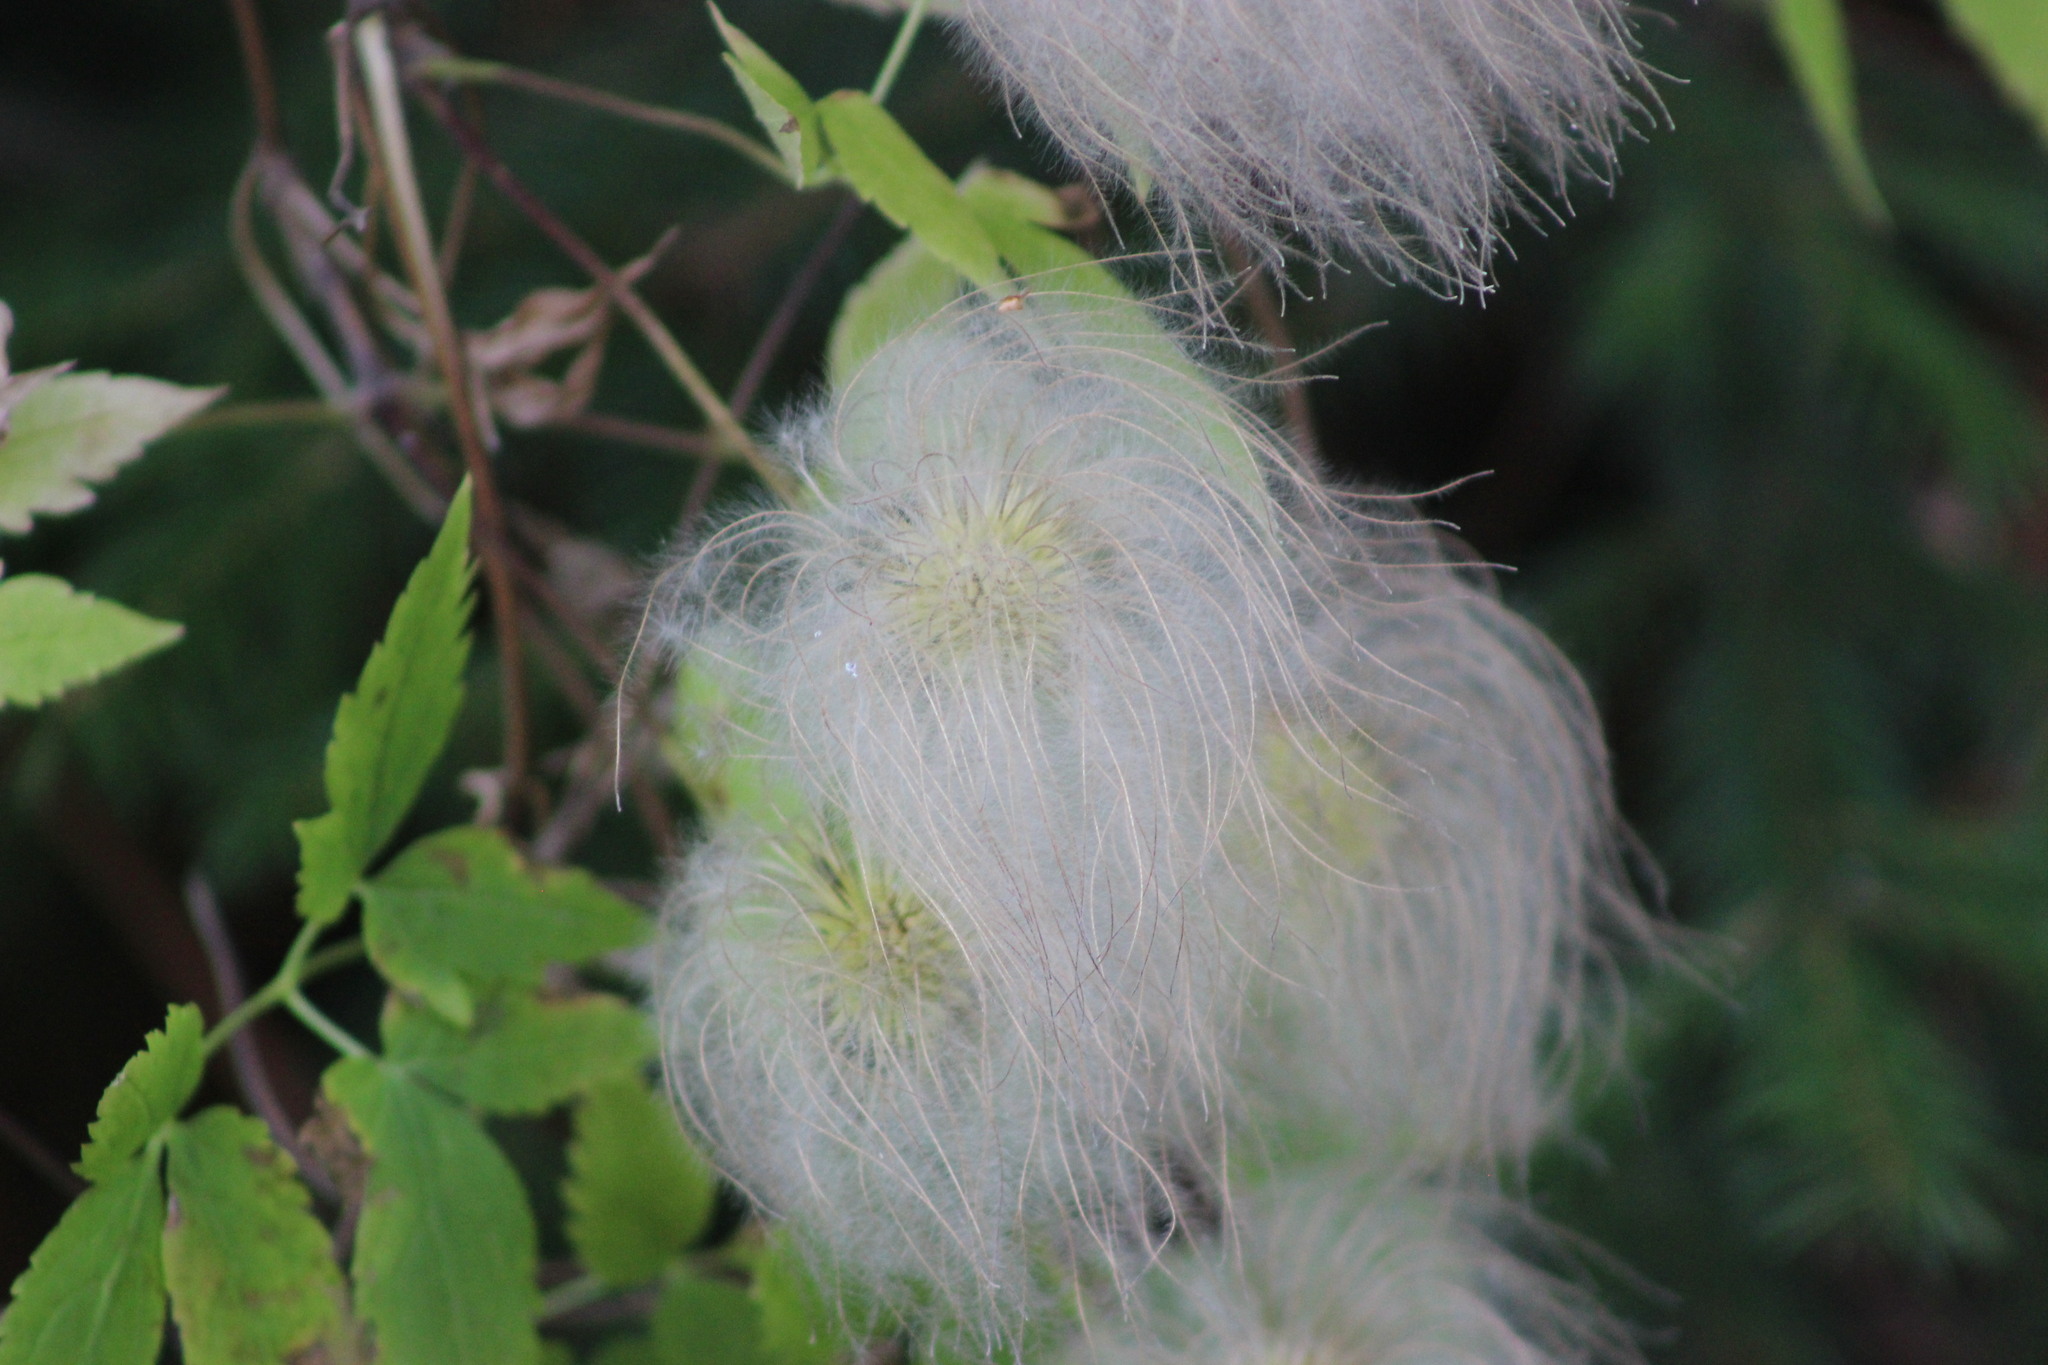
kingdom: Plantae
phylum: Tracheophyta
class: Magnoliopsida
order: Ranunculales
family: Ranunculaceae
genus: Clematis
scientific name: Clematis sibirica
